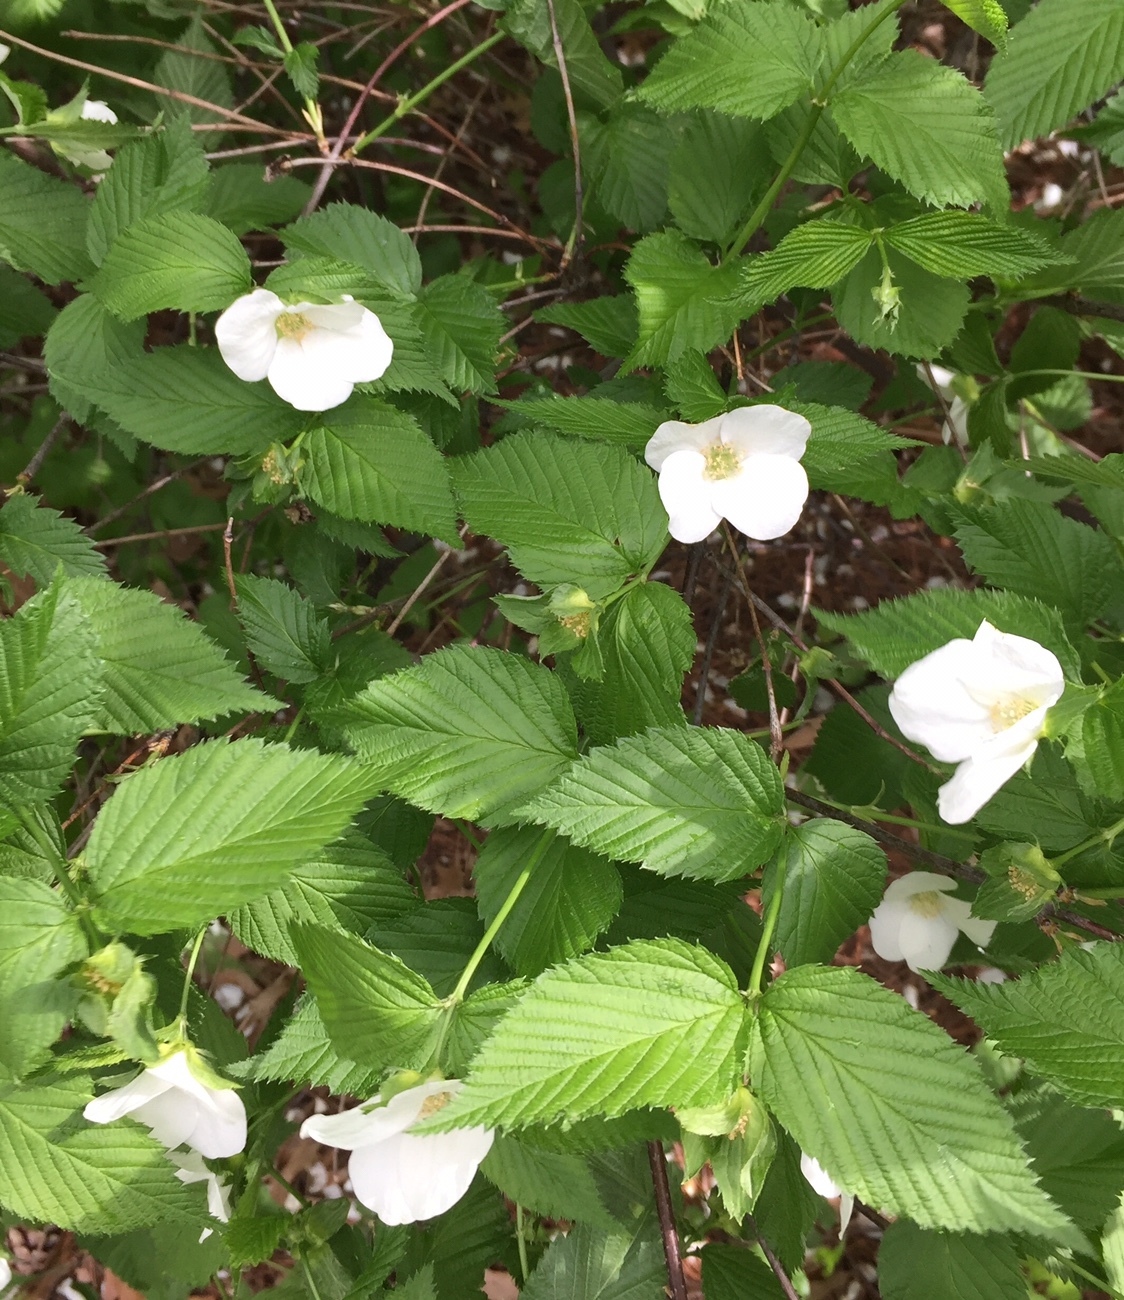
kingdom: Plantae
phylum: Tracheophyta
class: Magnoliopsida
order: Rosales
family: Rosaceae
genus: Rhodotypos
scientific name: Rhodotypos scandens
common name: Jetbead
